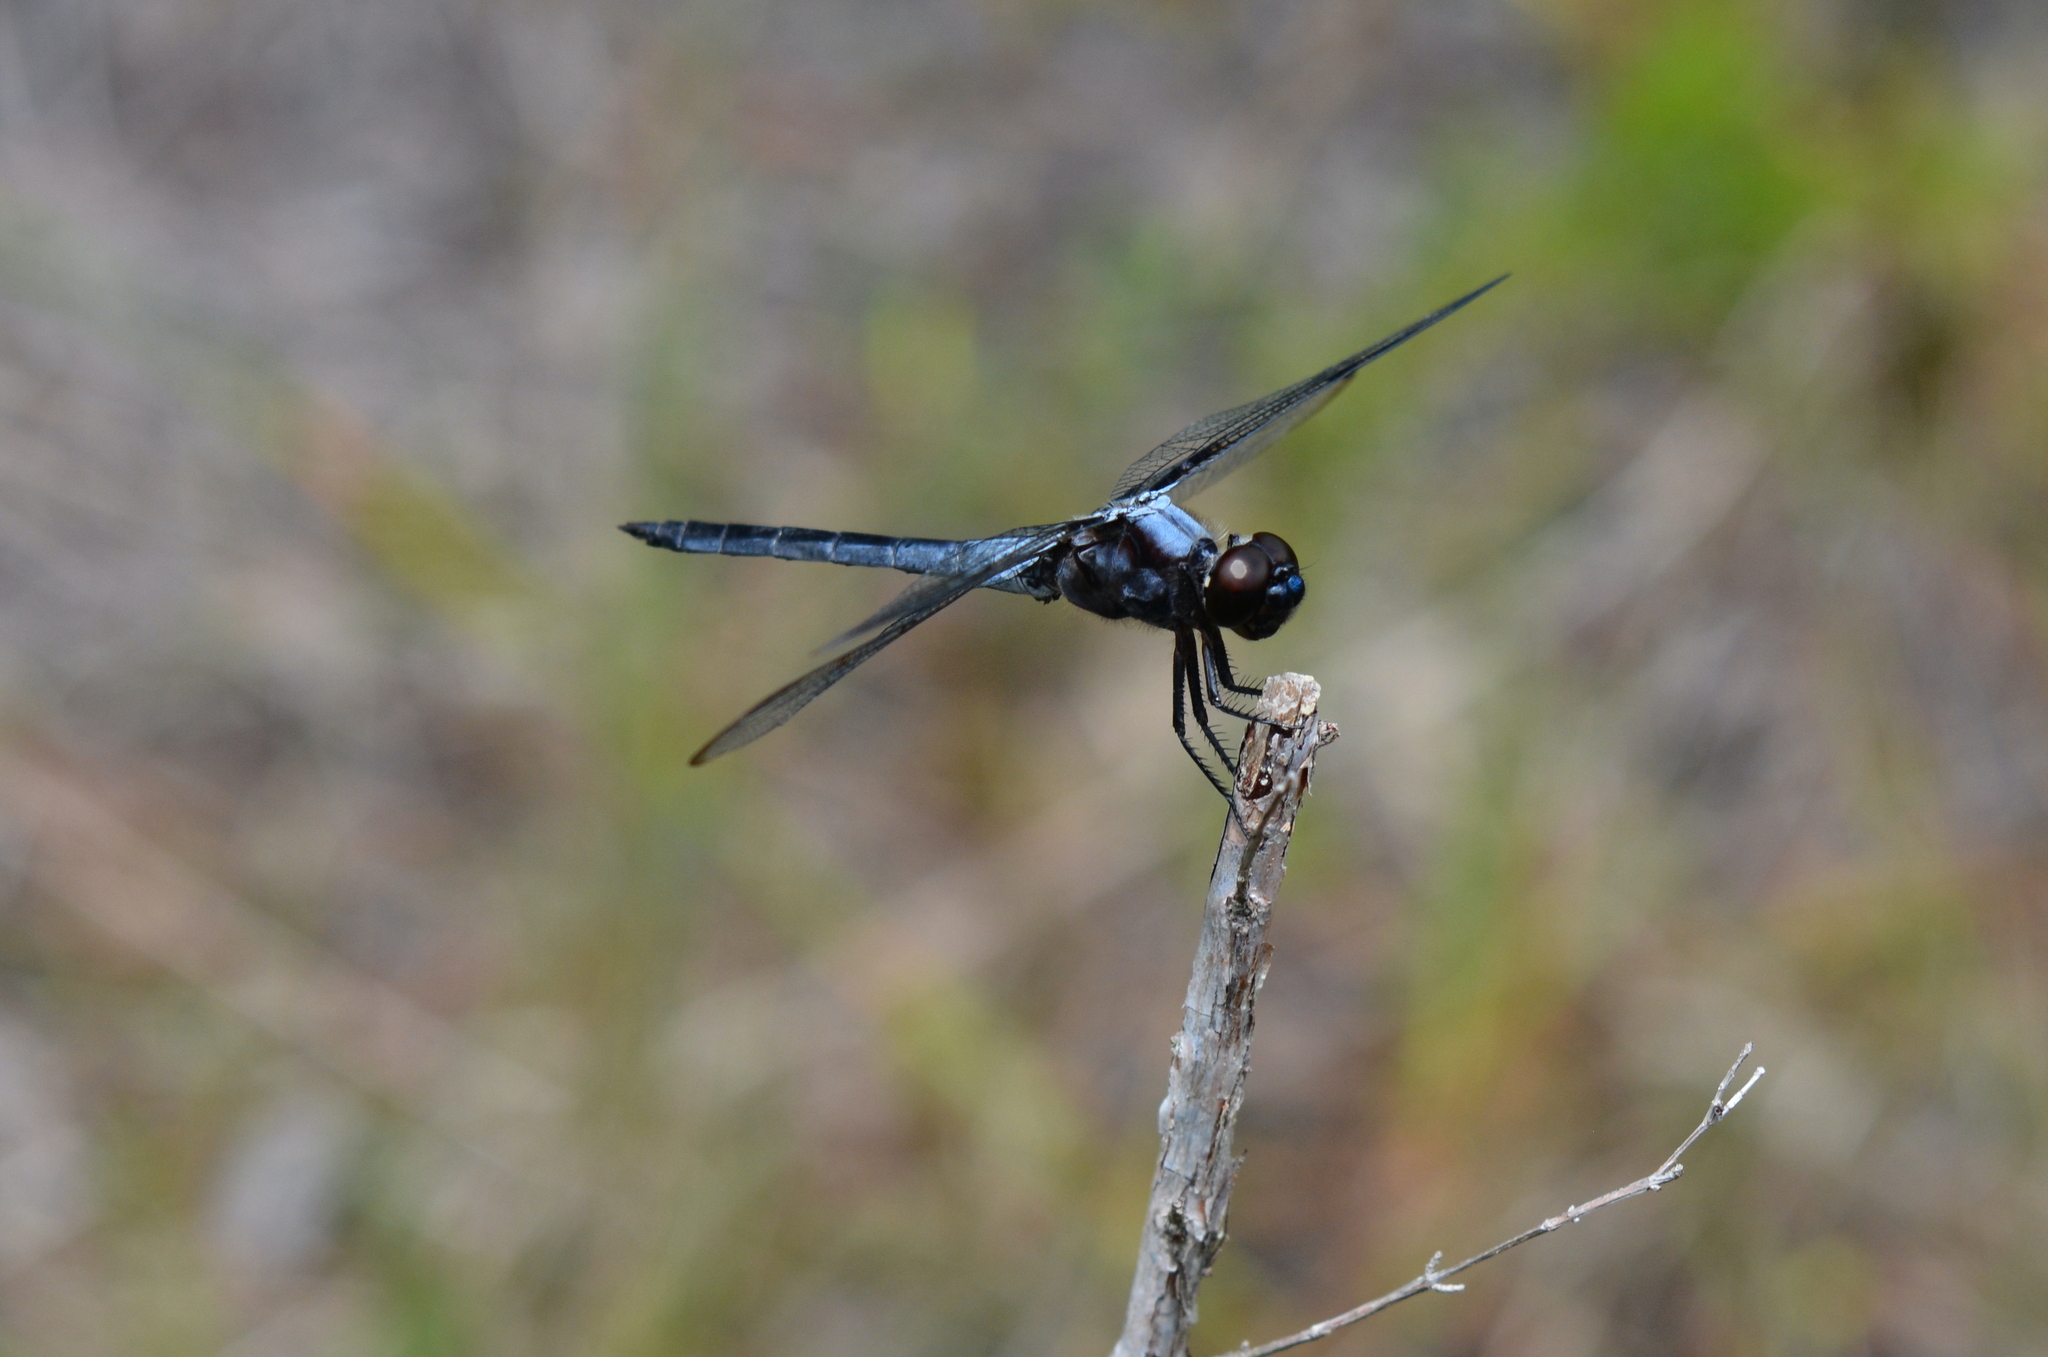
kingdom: Animalia
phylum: Arthropoda
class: Insecta
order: Odonata
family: Libellulidae
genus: Libellula
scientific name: Libellula axilena
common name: Bar-winged skimmer
